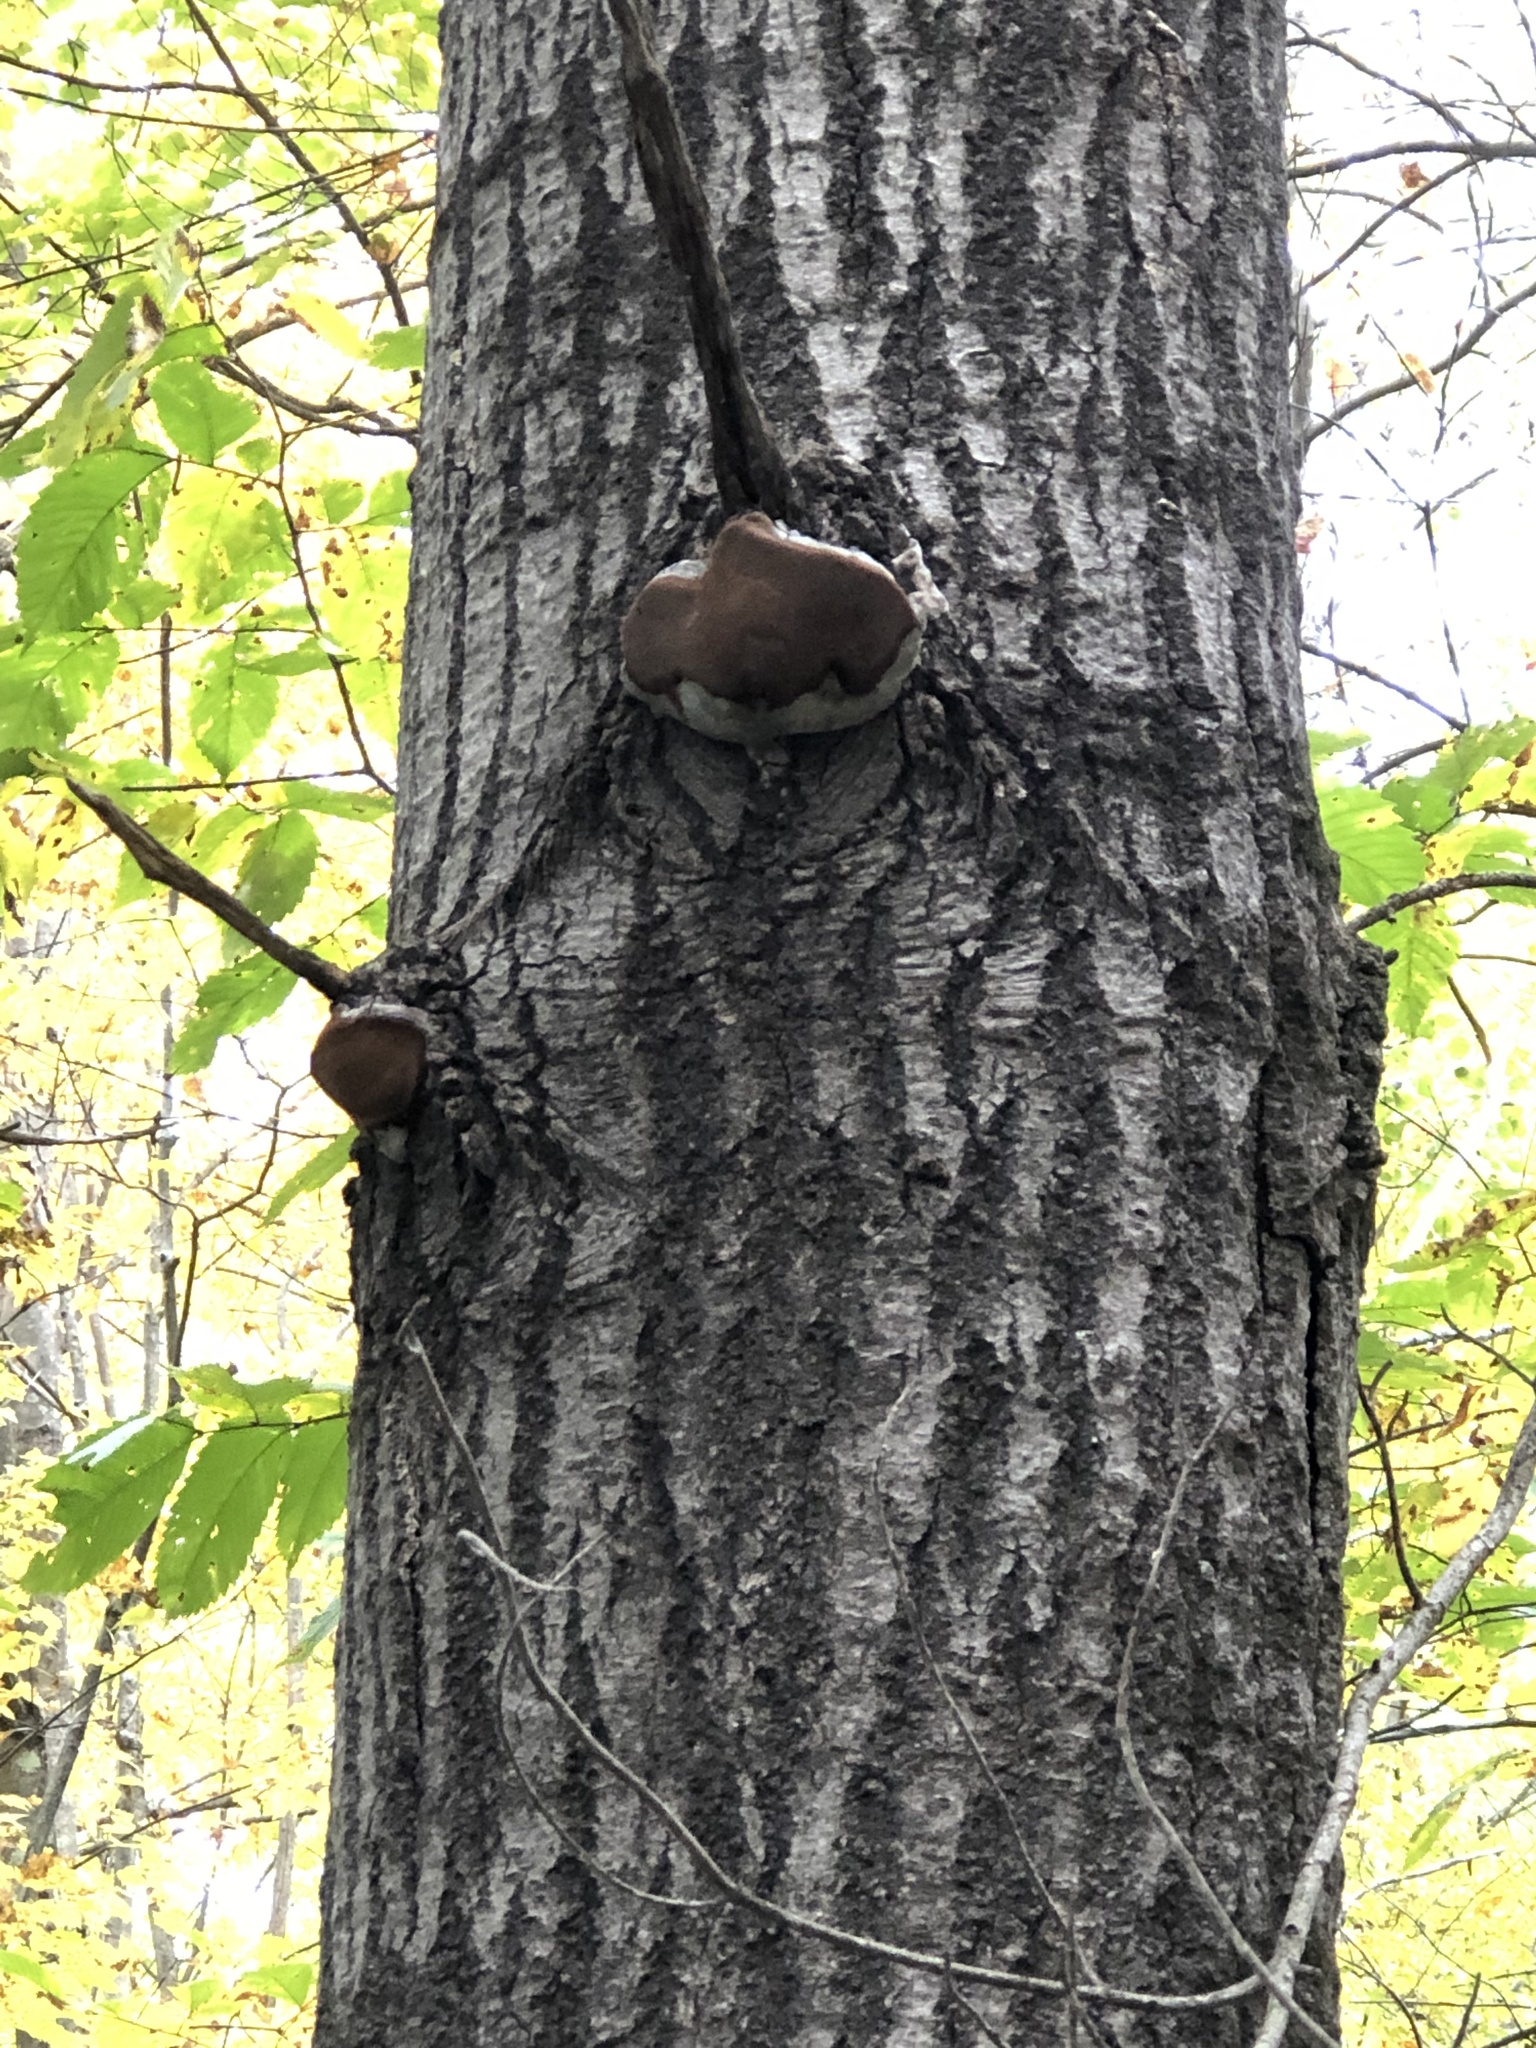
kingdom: Fungi
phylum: Basidiomycota
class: Agaricomycetes
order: Hymenochaetales
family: Hymenochaetaceae
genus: Phellinus
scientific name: Phellinus tremulae
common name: Aspen bracket
